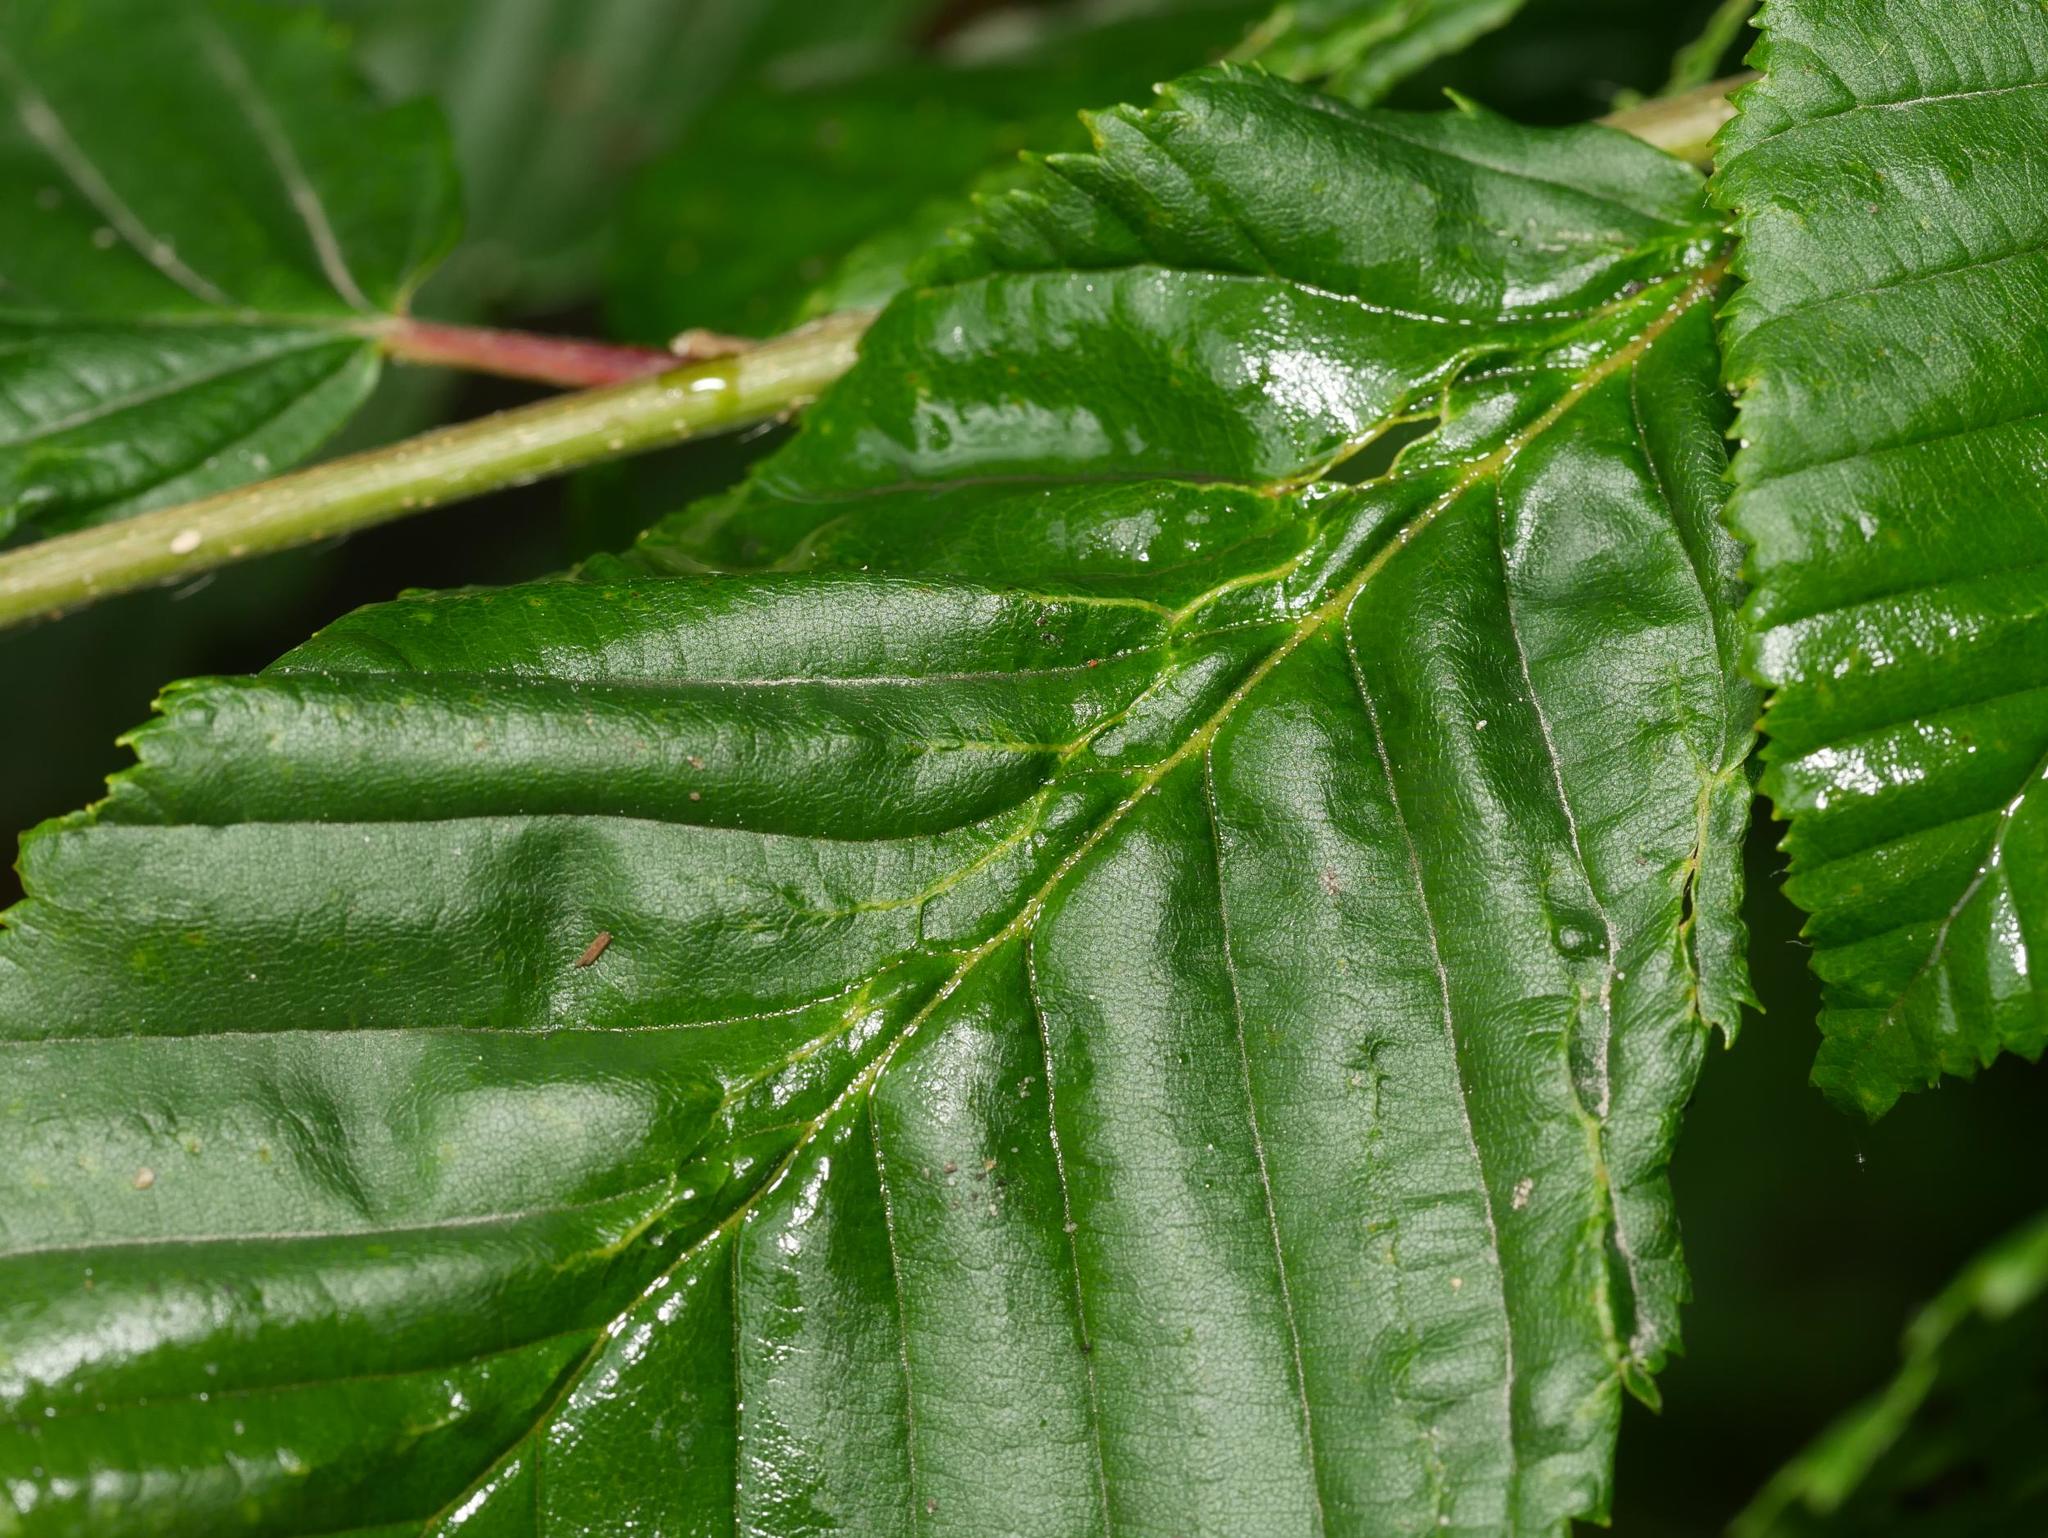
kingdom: Animalia
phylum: Arthropoda
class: Arachnida
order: Trombidiformes
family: Eriophyidae
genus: Aceria
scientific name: Aceria tenellus
